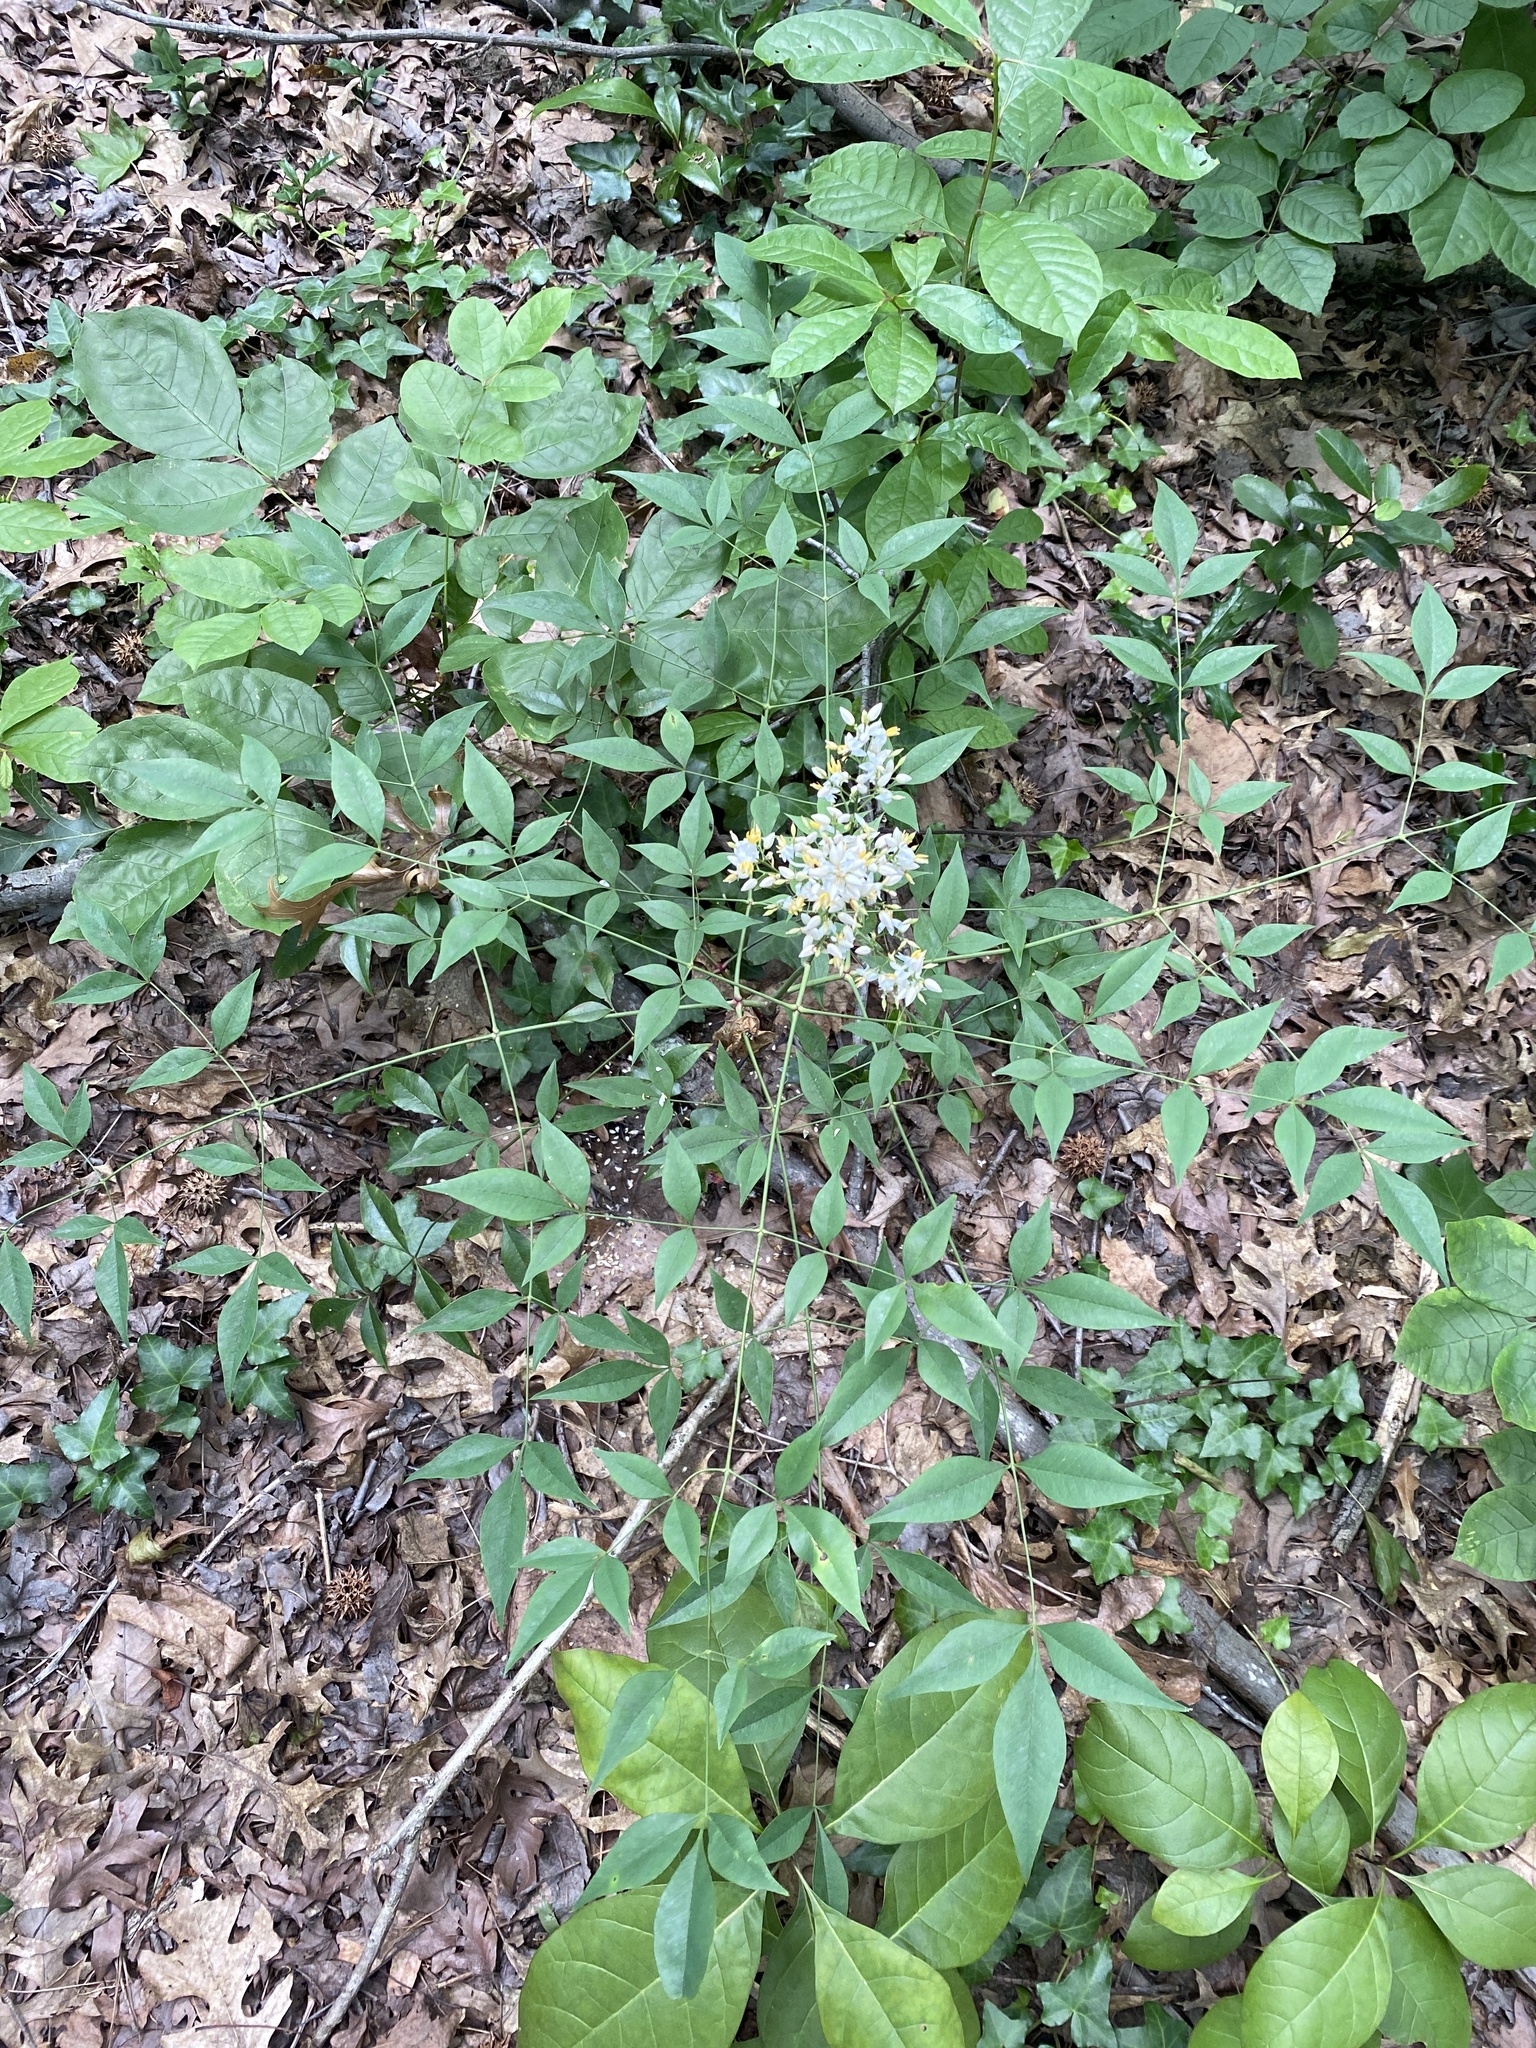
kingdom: Plantae
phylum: Tracheophyta
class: Magnoliopsida
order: Ranunculales
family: Berberidaceae
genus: Nandina
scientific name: Nandina domestica
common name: Sacred bamboo
